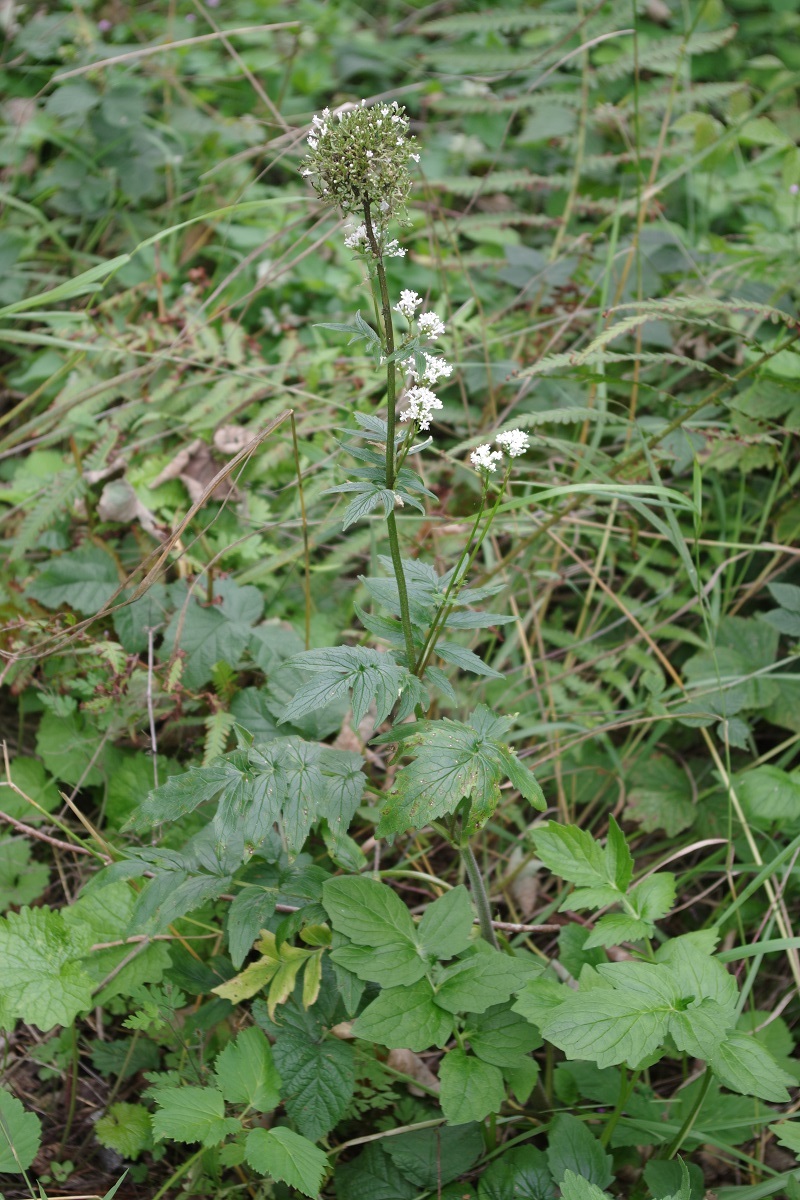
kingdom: Plantae
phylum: Tracheophyta
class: Magnoliopsida
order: Dipsacales
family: Caprifoliaceae
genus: Valeriana
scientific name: Valeriana officinalis
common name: Common valerian
